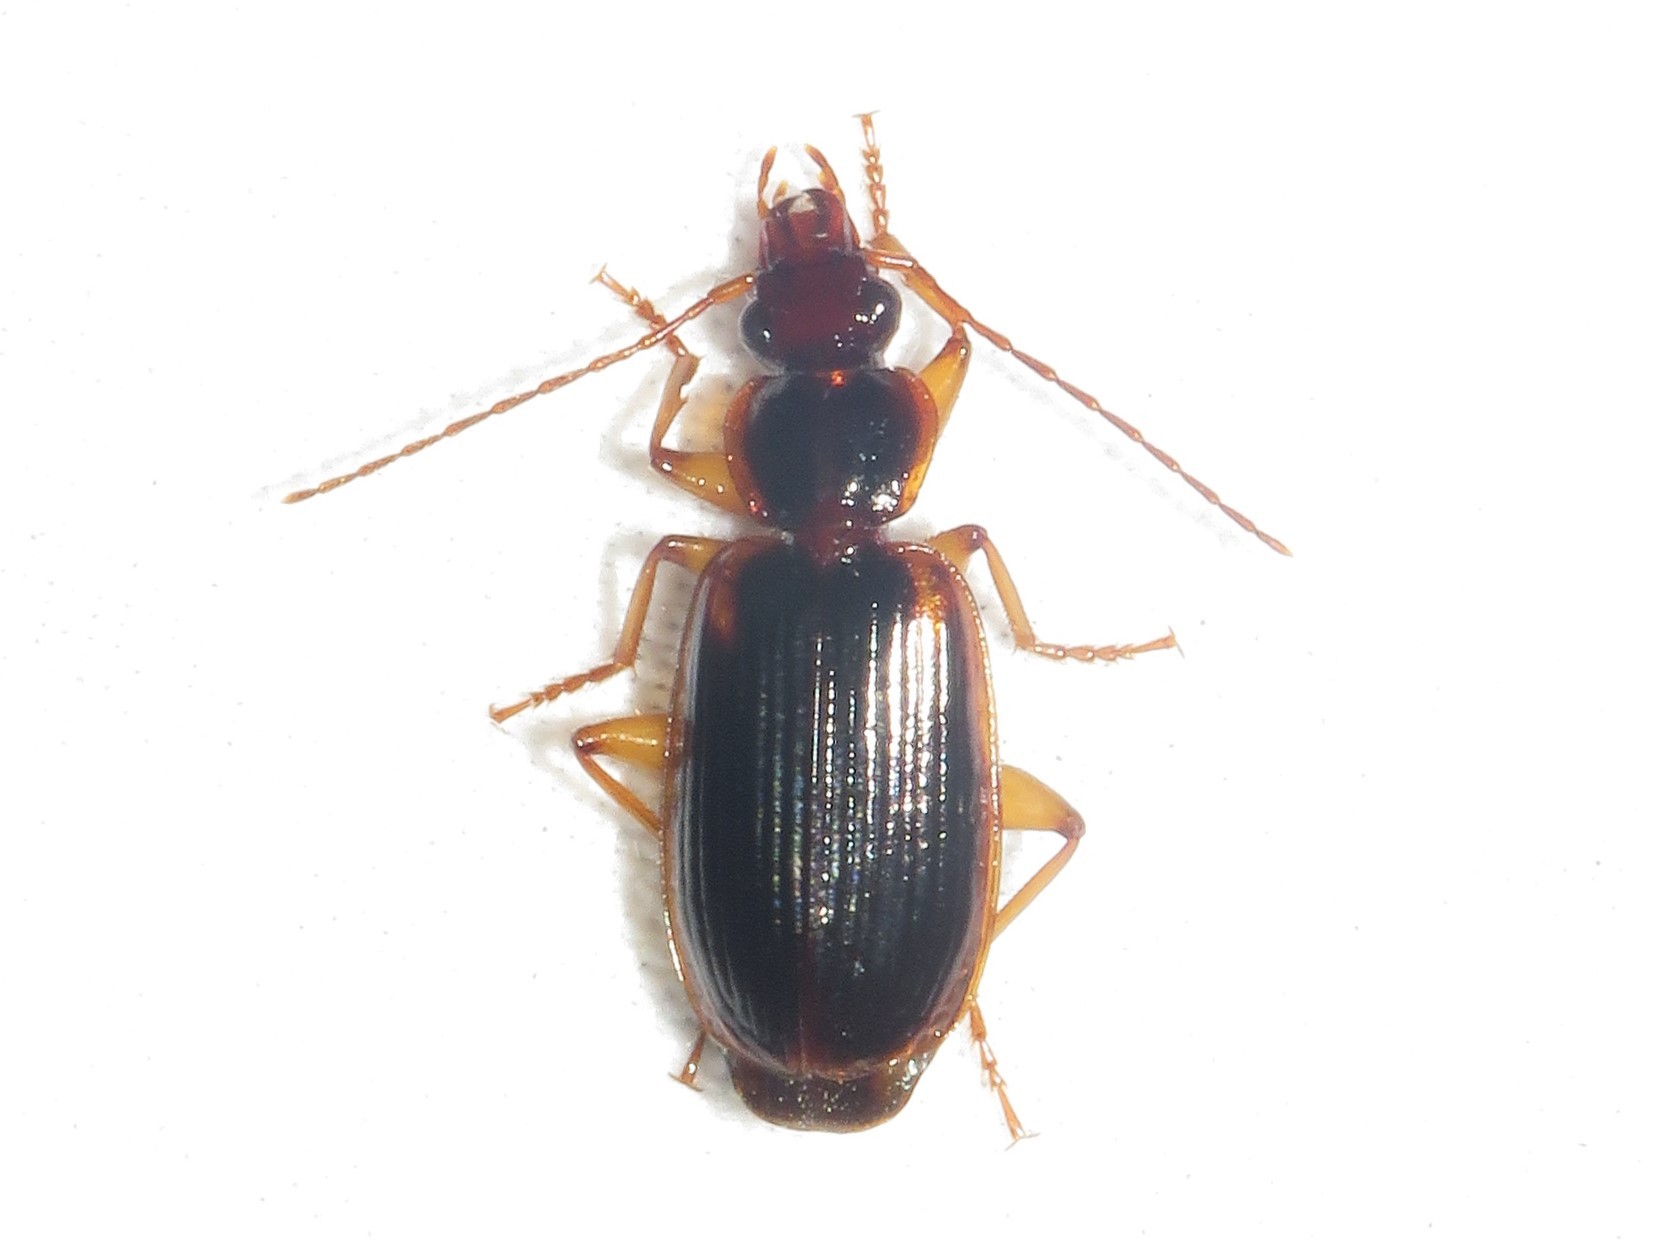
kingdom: Animalia
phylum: Arthropoda
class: Insecta
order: Coleoptera
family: Carabidae
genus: Pinacodera
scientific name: Pinacodera limbata
